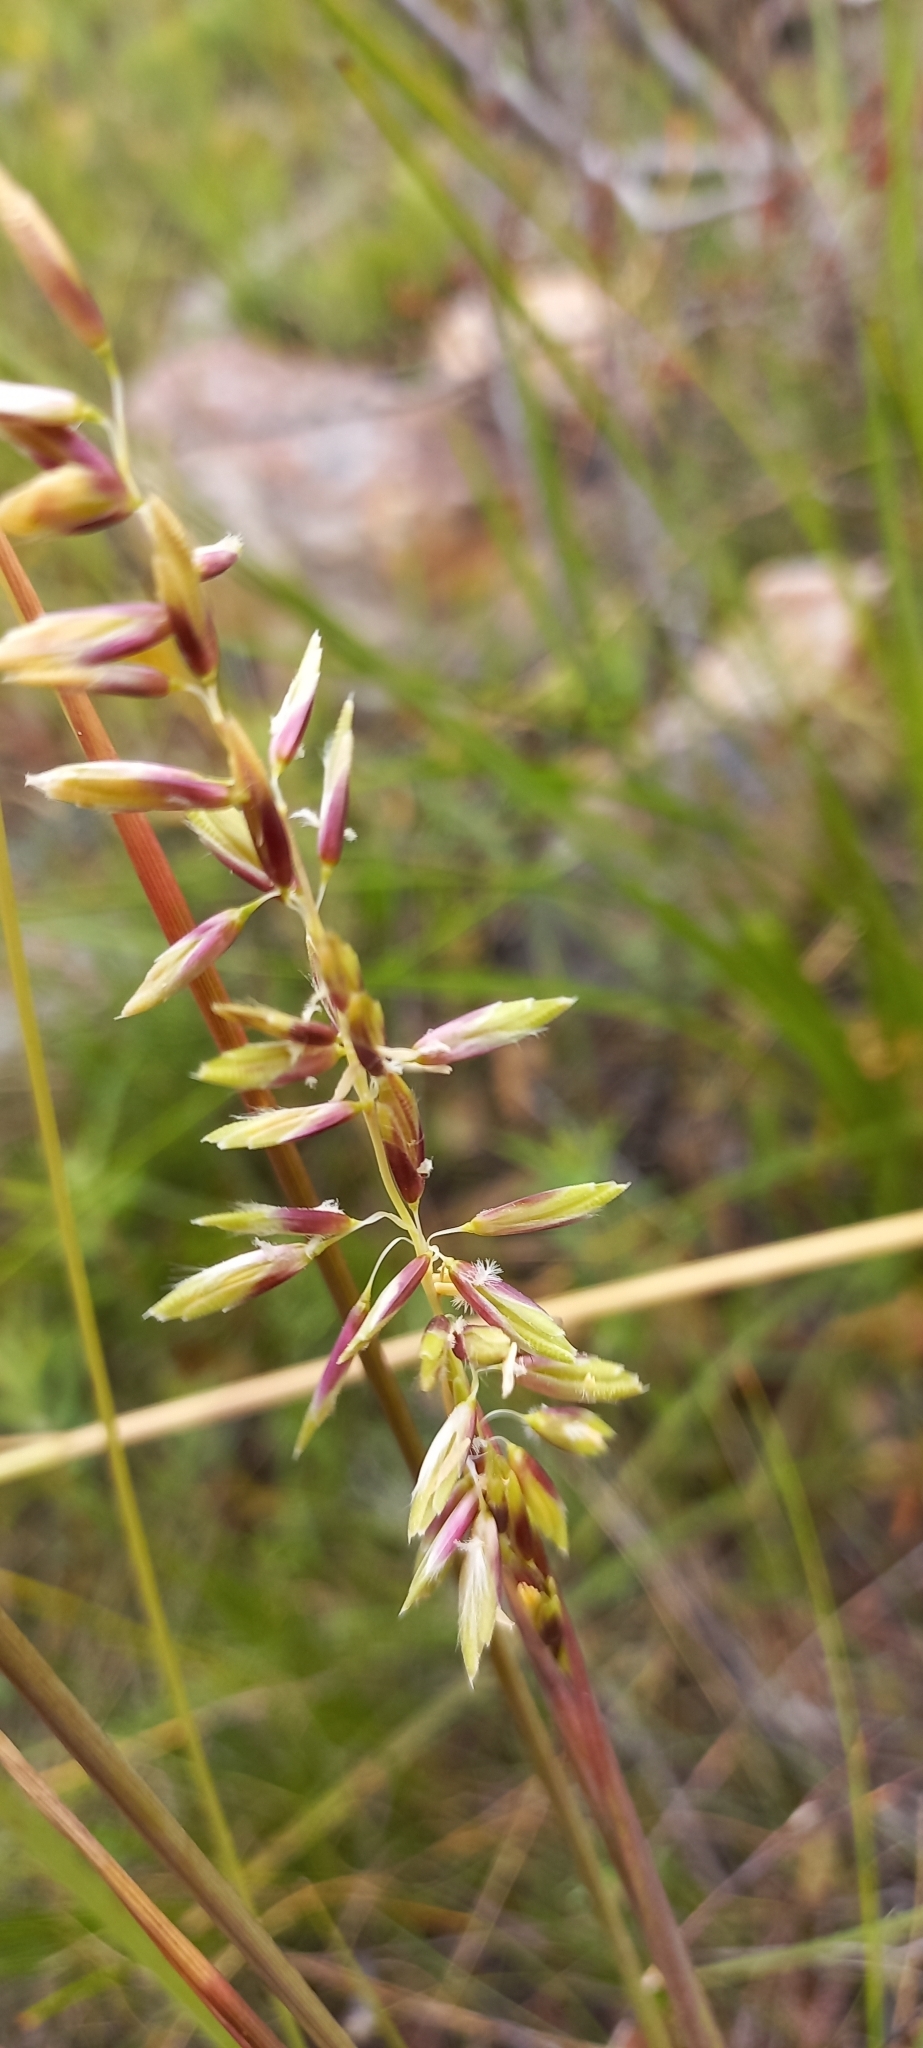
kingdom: Plantae
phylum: Tracheophyta
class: Liliopsida
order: Poales
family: Poaceae
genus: Ehrharta
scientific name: Ehrharta calycina
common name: Perennial veldtgrass
